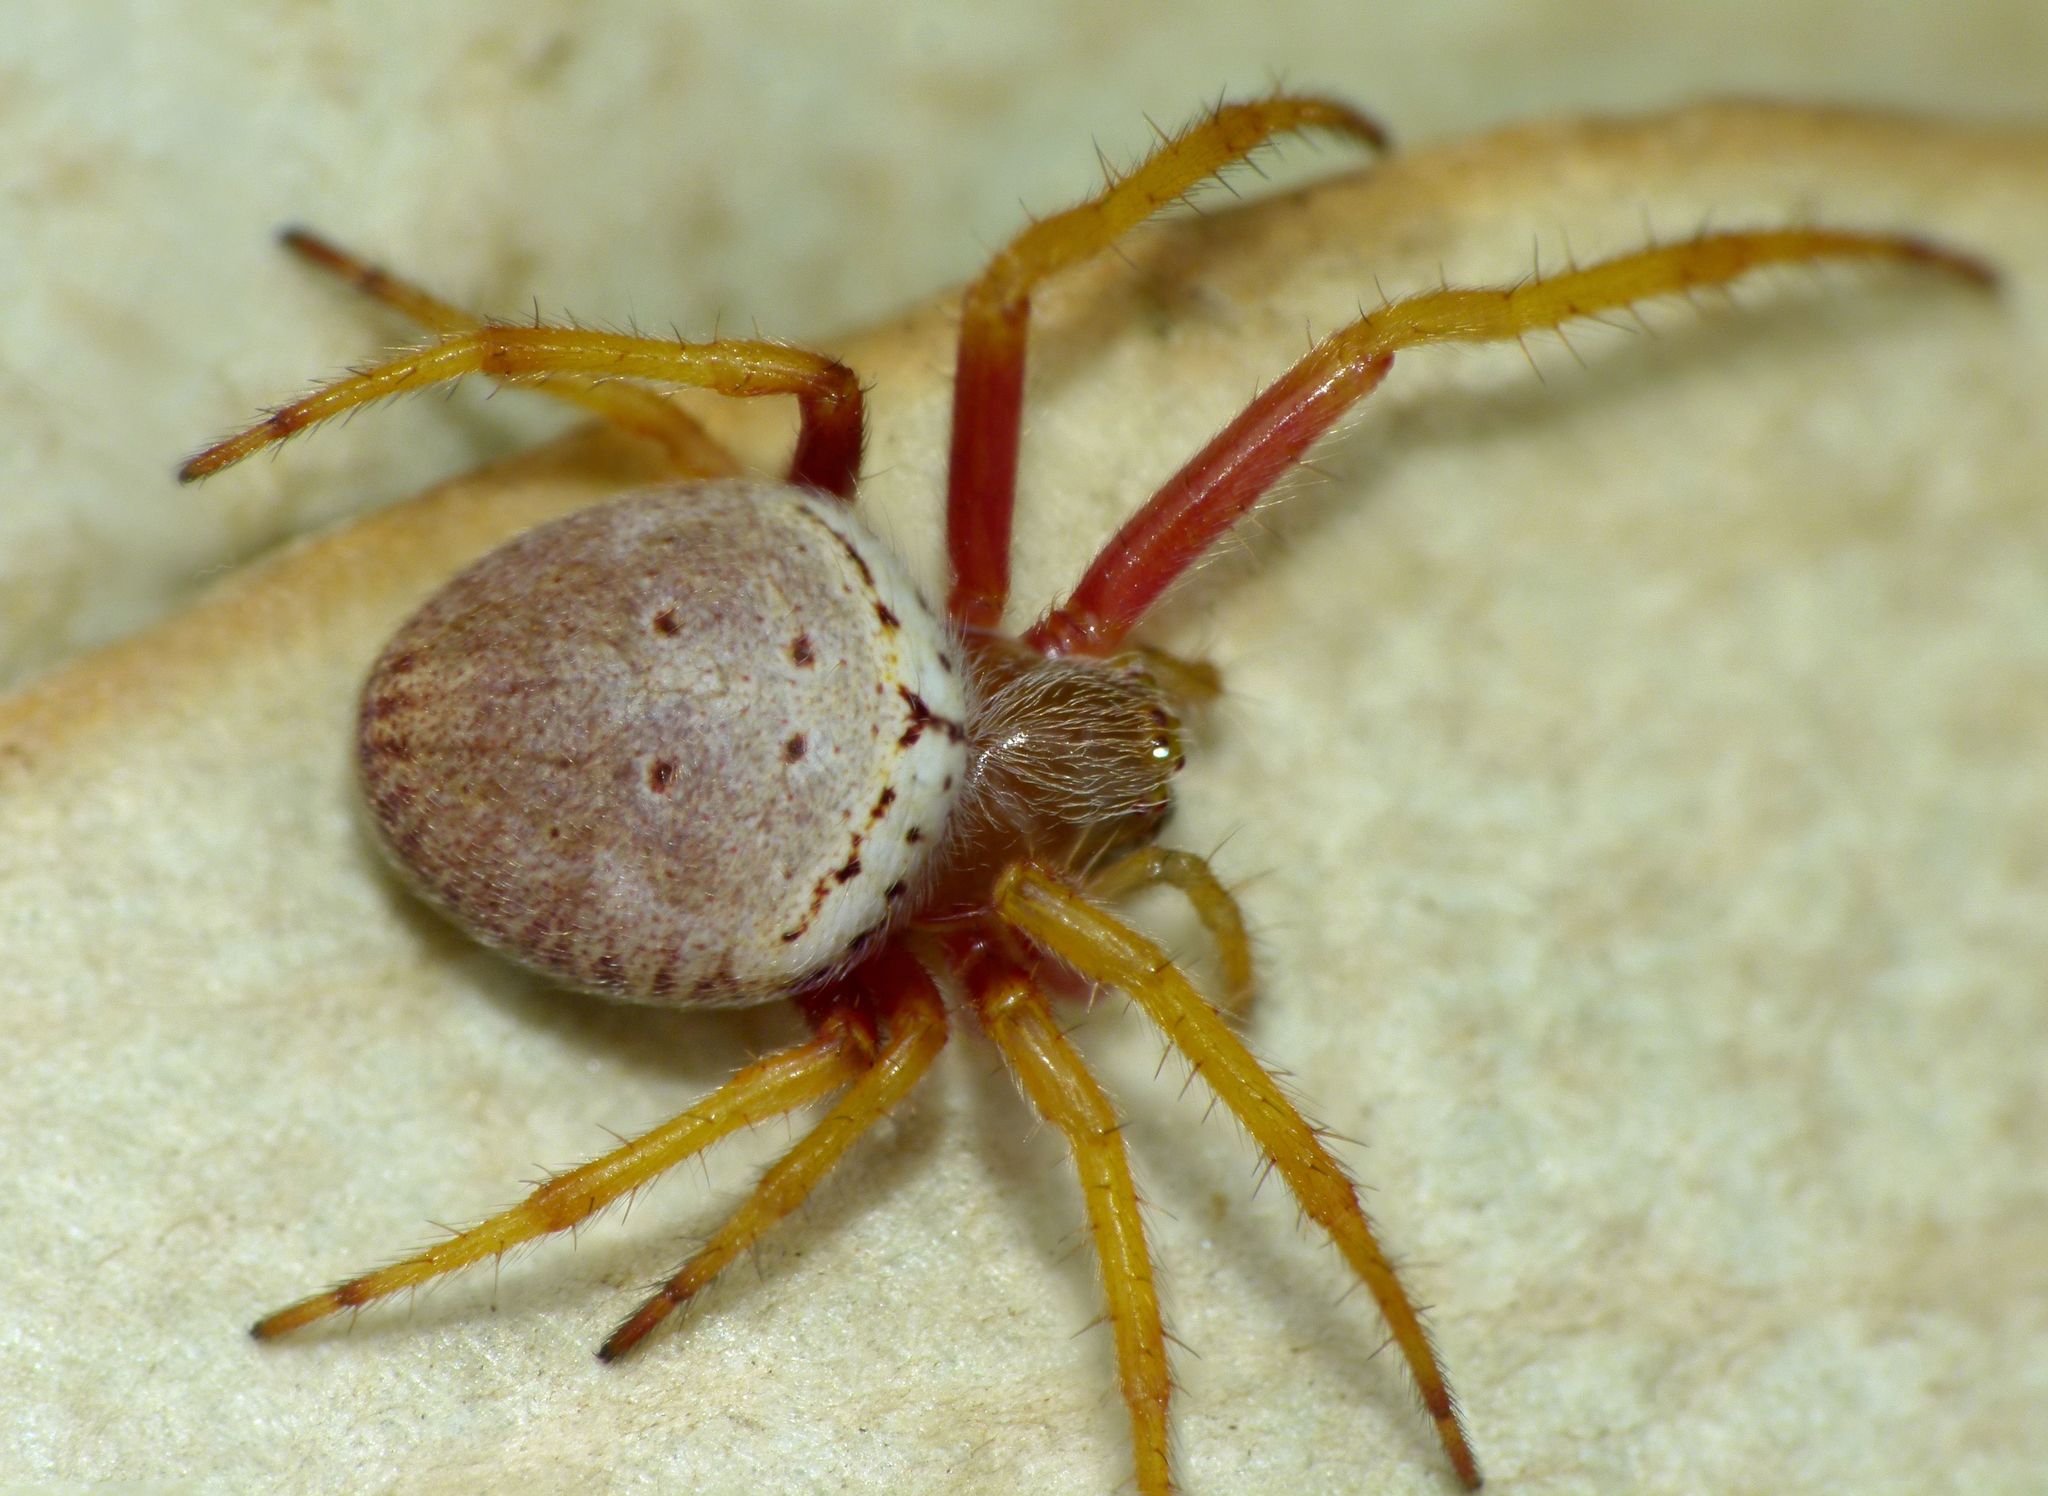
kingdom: Animalia
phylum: Arthropoda
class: Arachnida
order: Araneae
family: Araneidae
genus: Zealaranea
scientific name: Zealaranea prina
